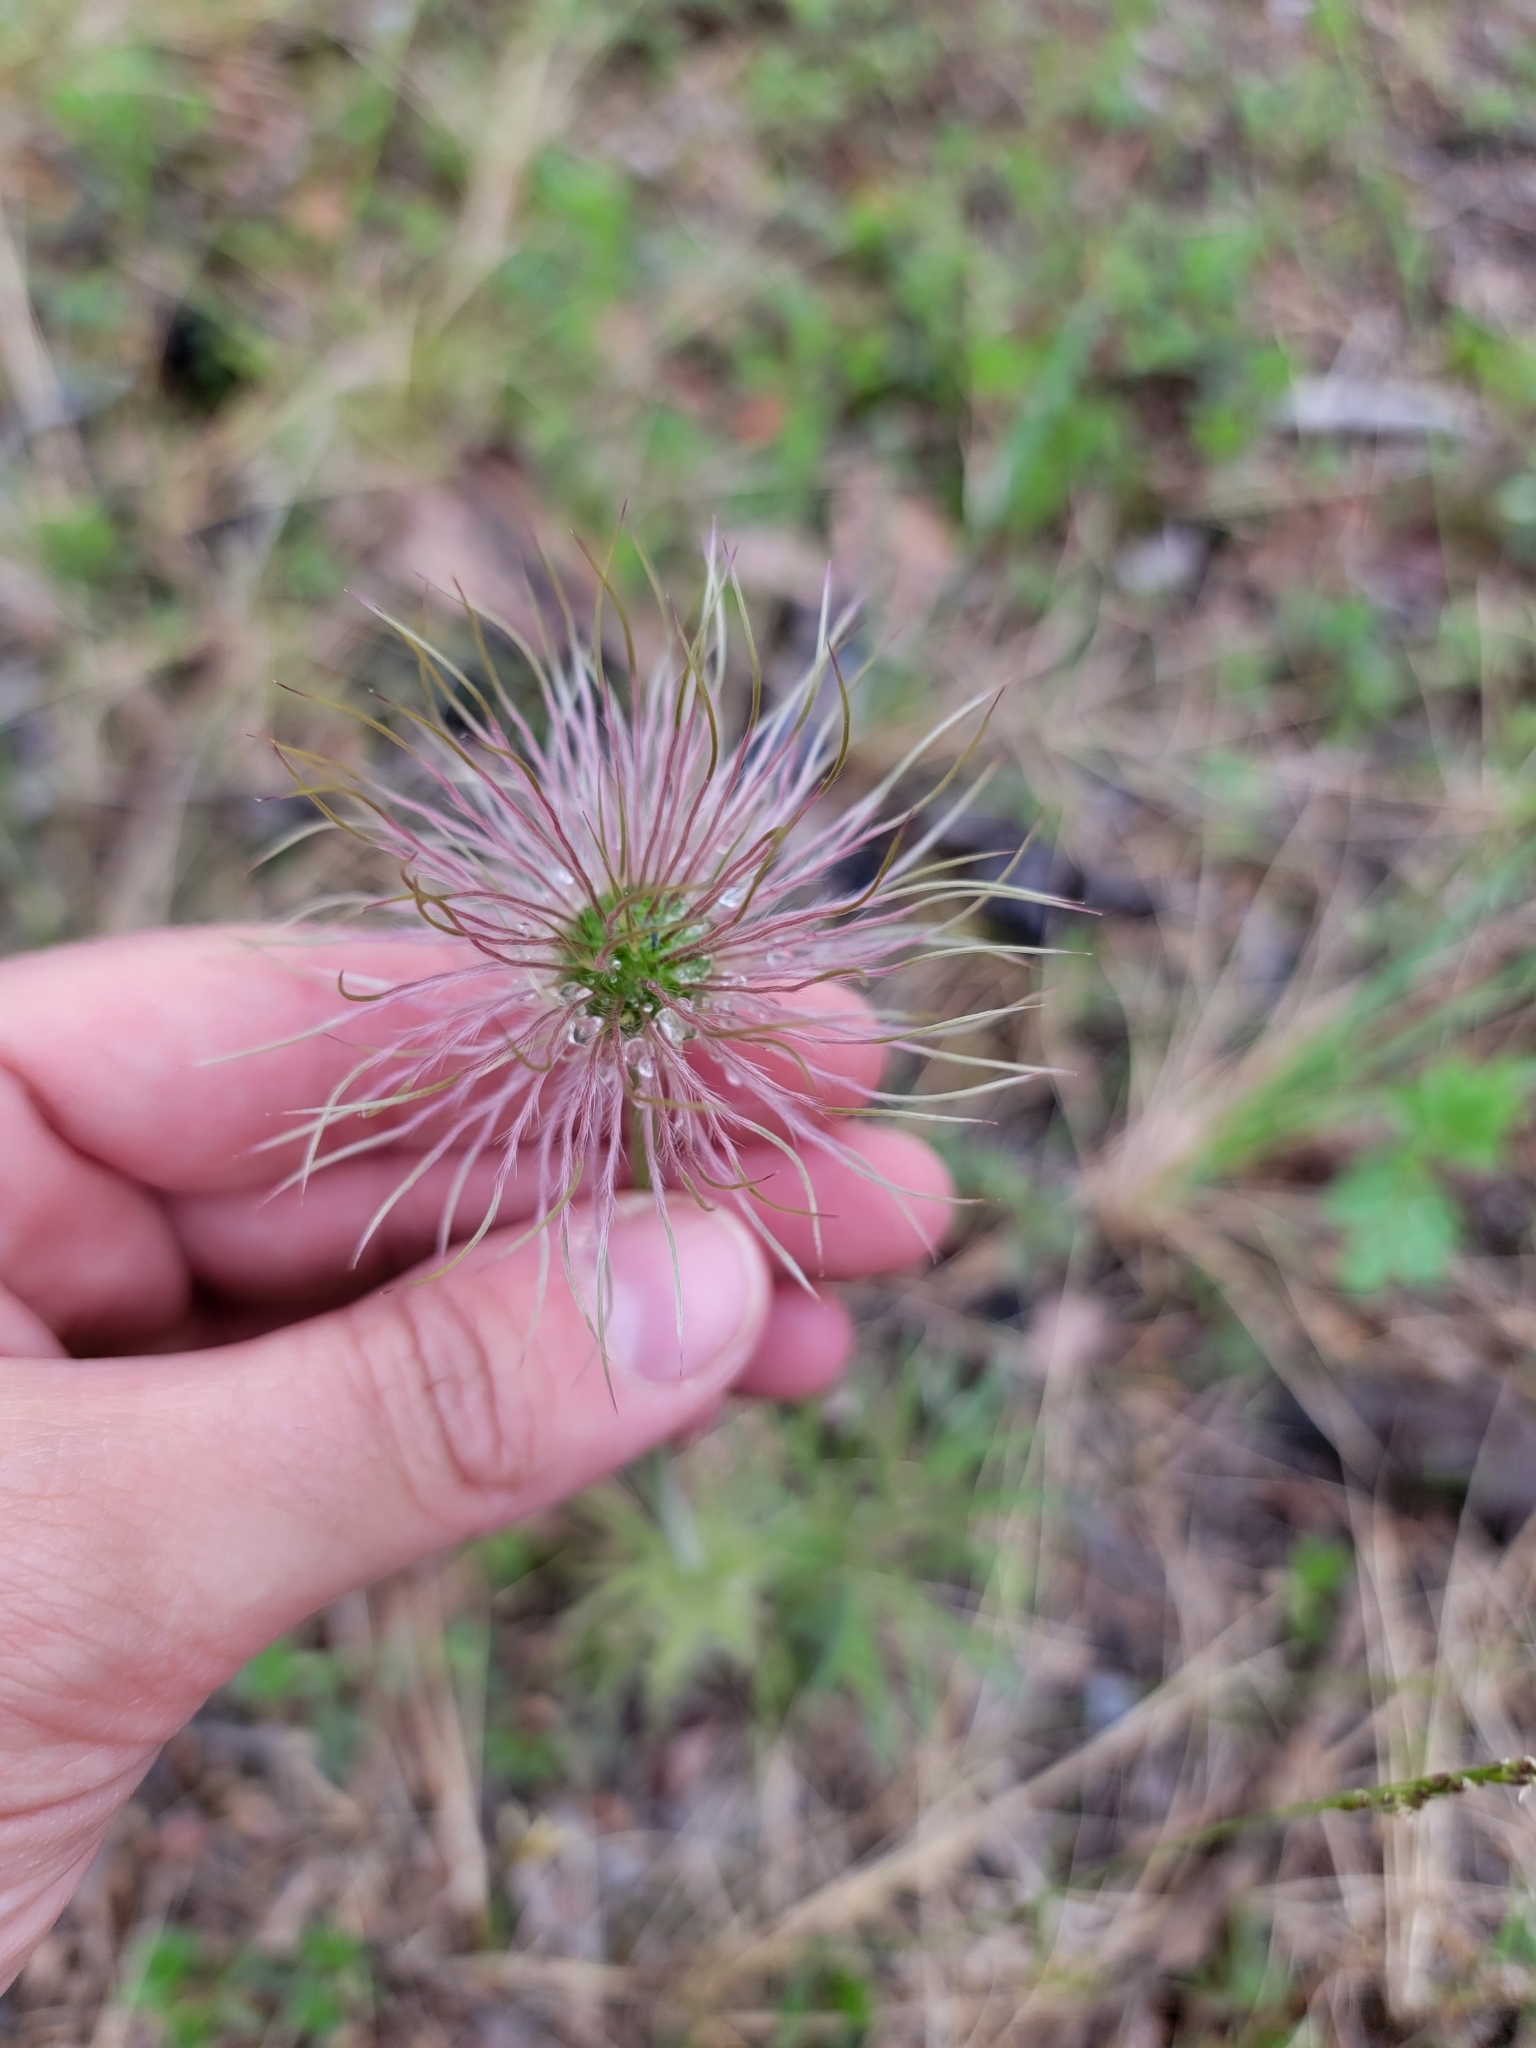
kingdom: Plantae
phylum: Tracheophyta
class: Magnoliopsida
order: Ranunculales
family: Ranunculaceae
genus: Pulsatilla
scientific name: Pulsatilla nuttalliana
